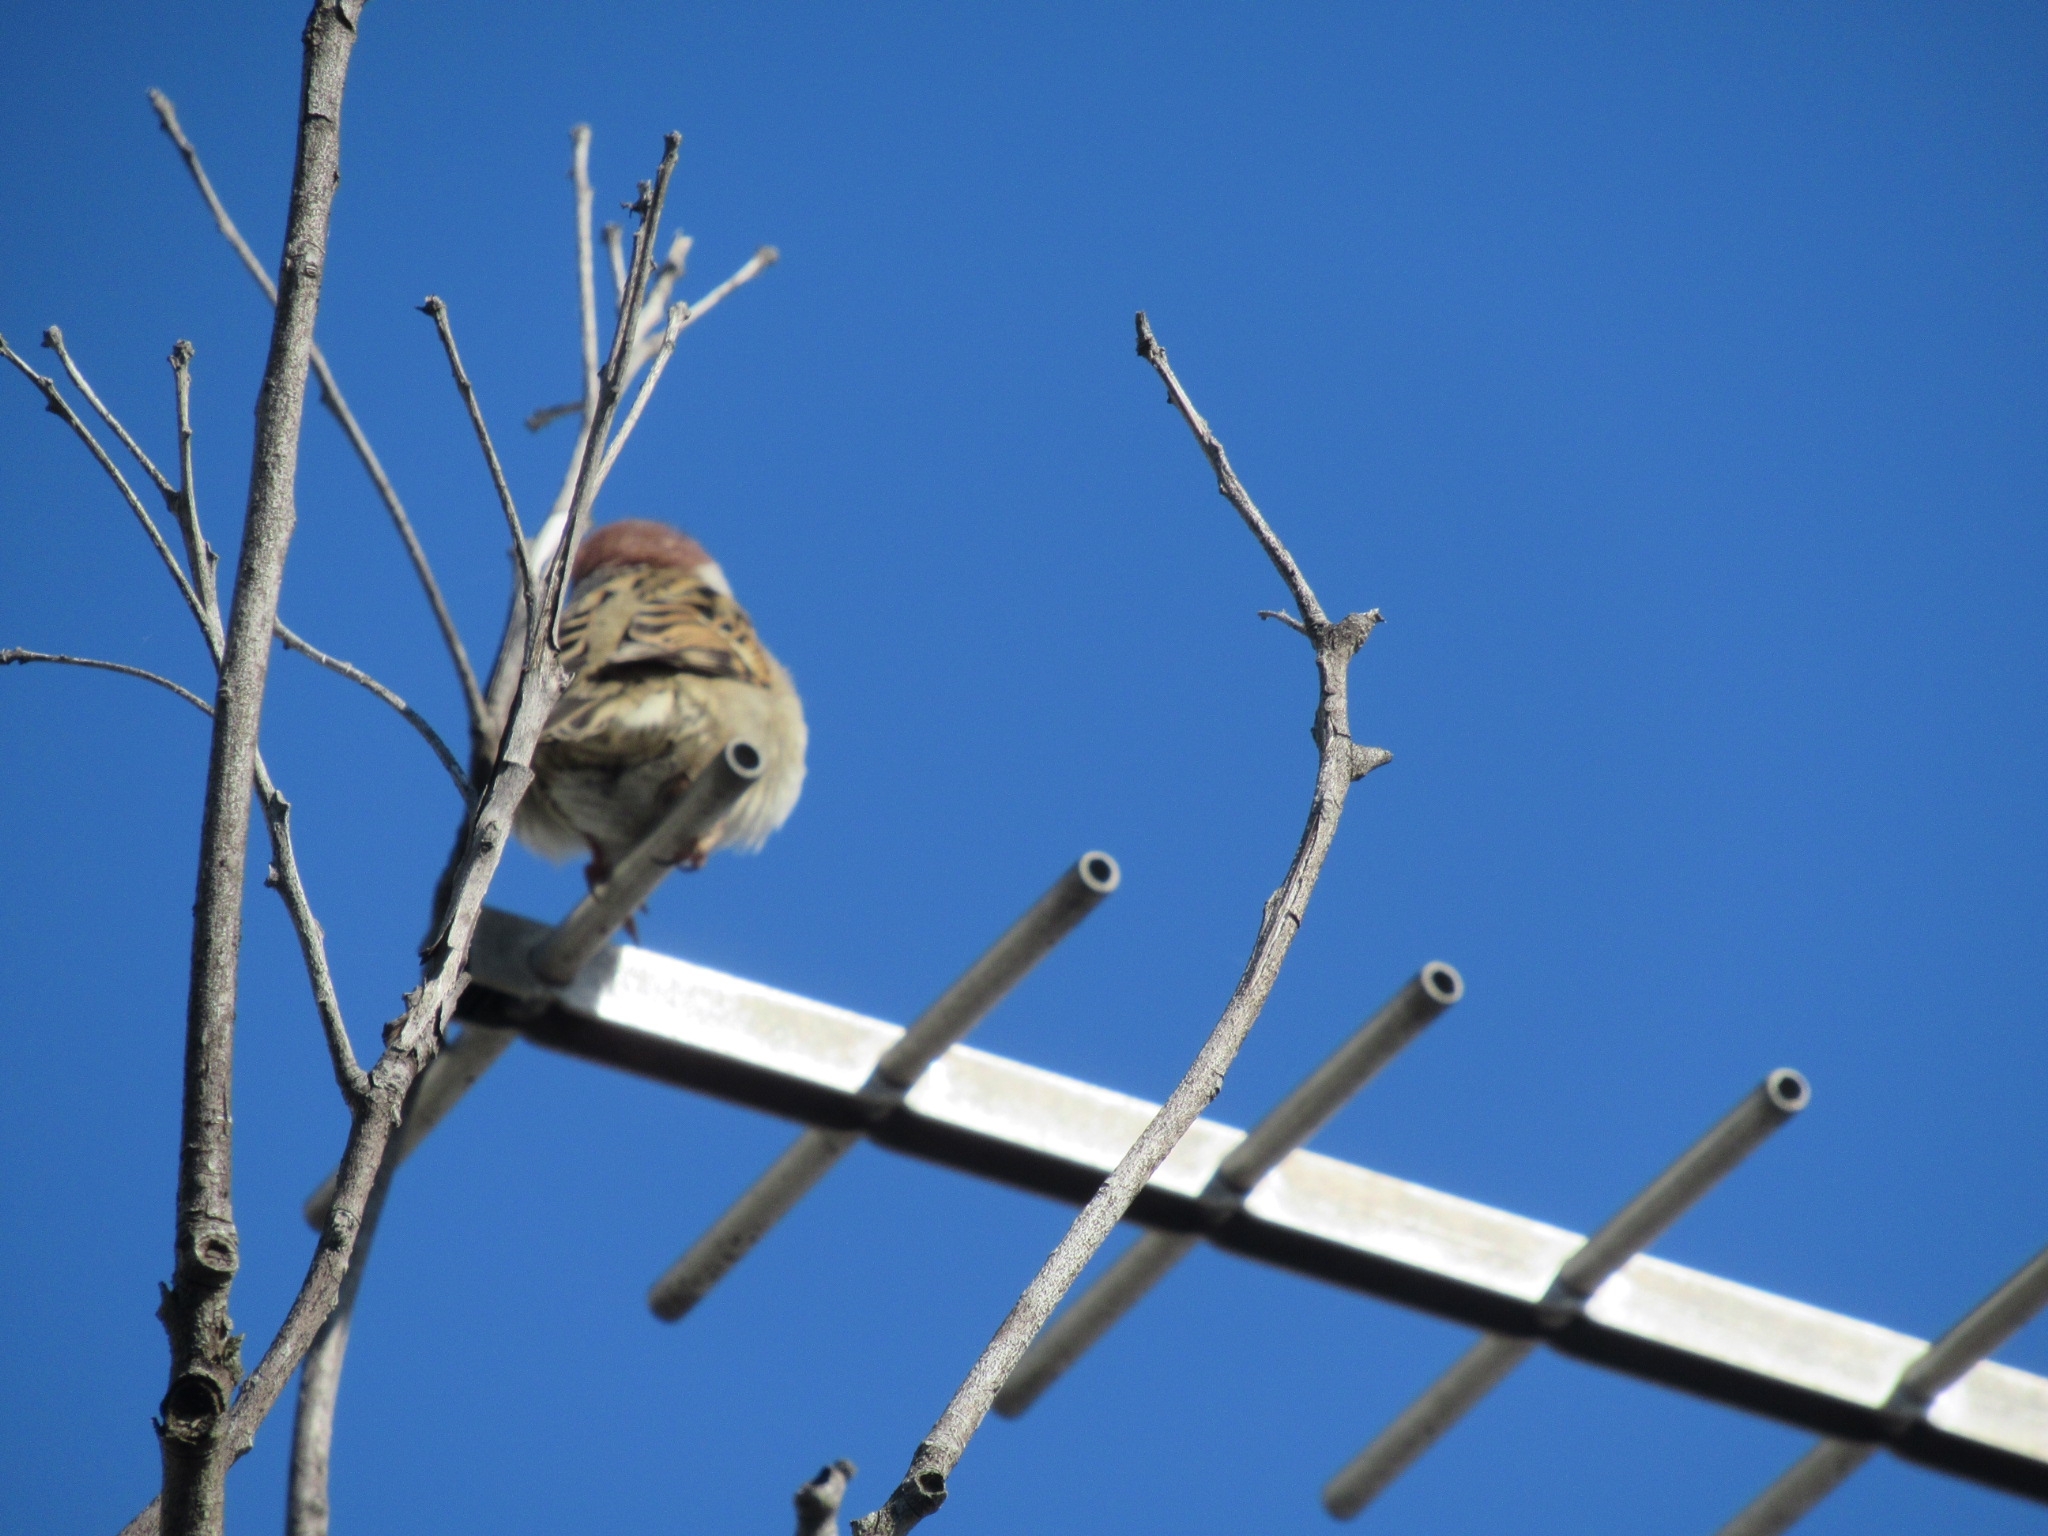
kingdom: Animalia
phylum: Chordata
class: Aves
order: Passeriformes
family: Passeridae
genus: Passer
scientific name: Passer montanus
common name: Eurasian tree sparrow
